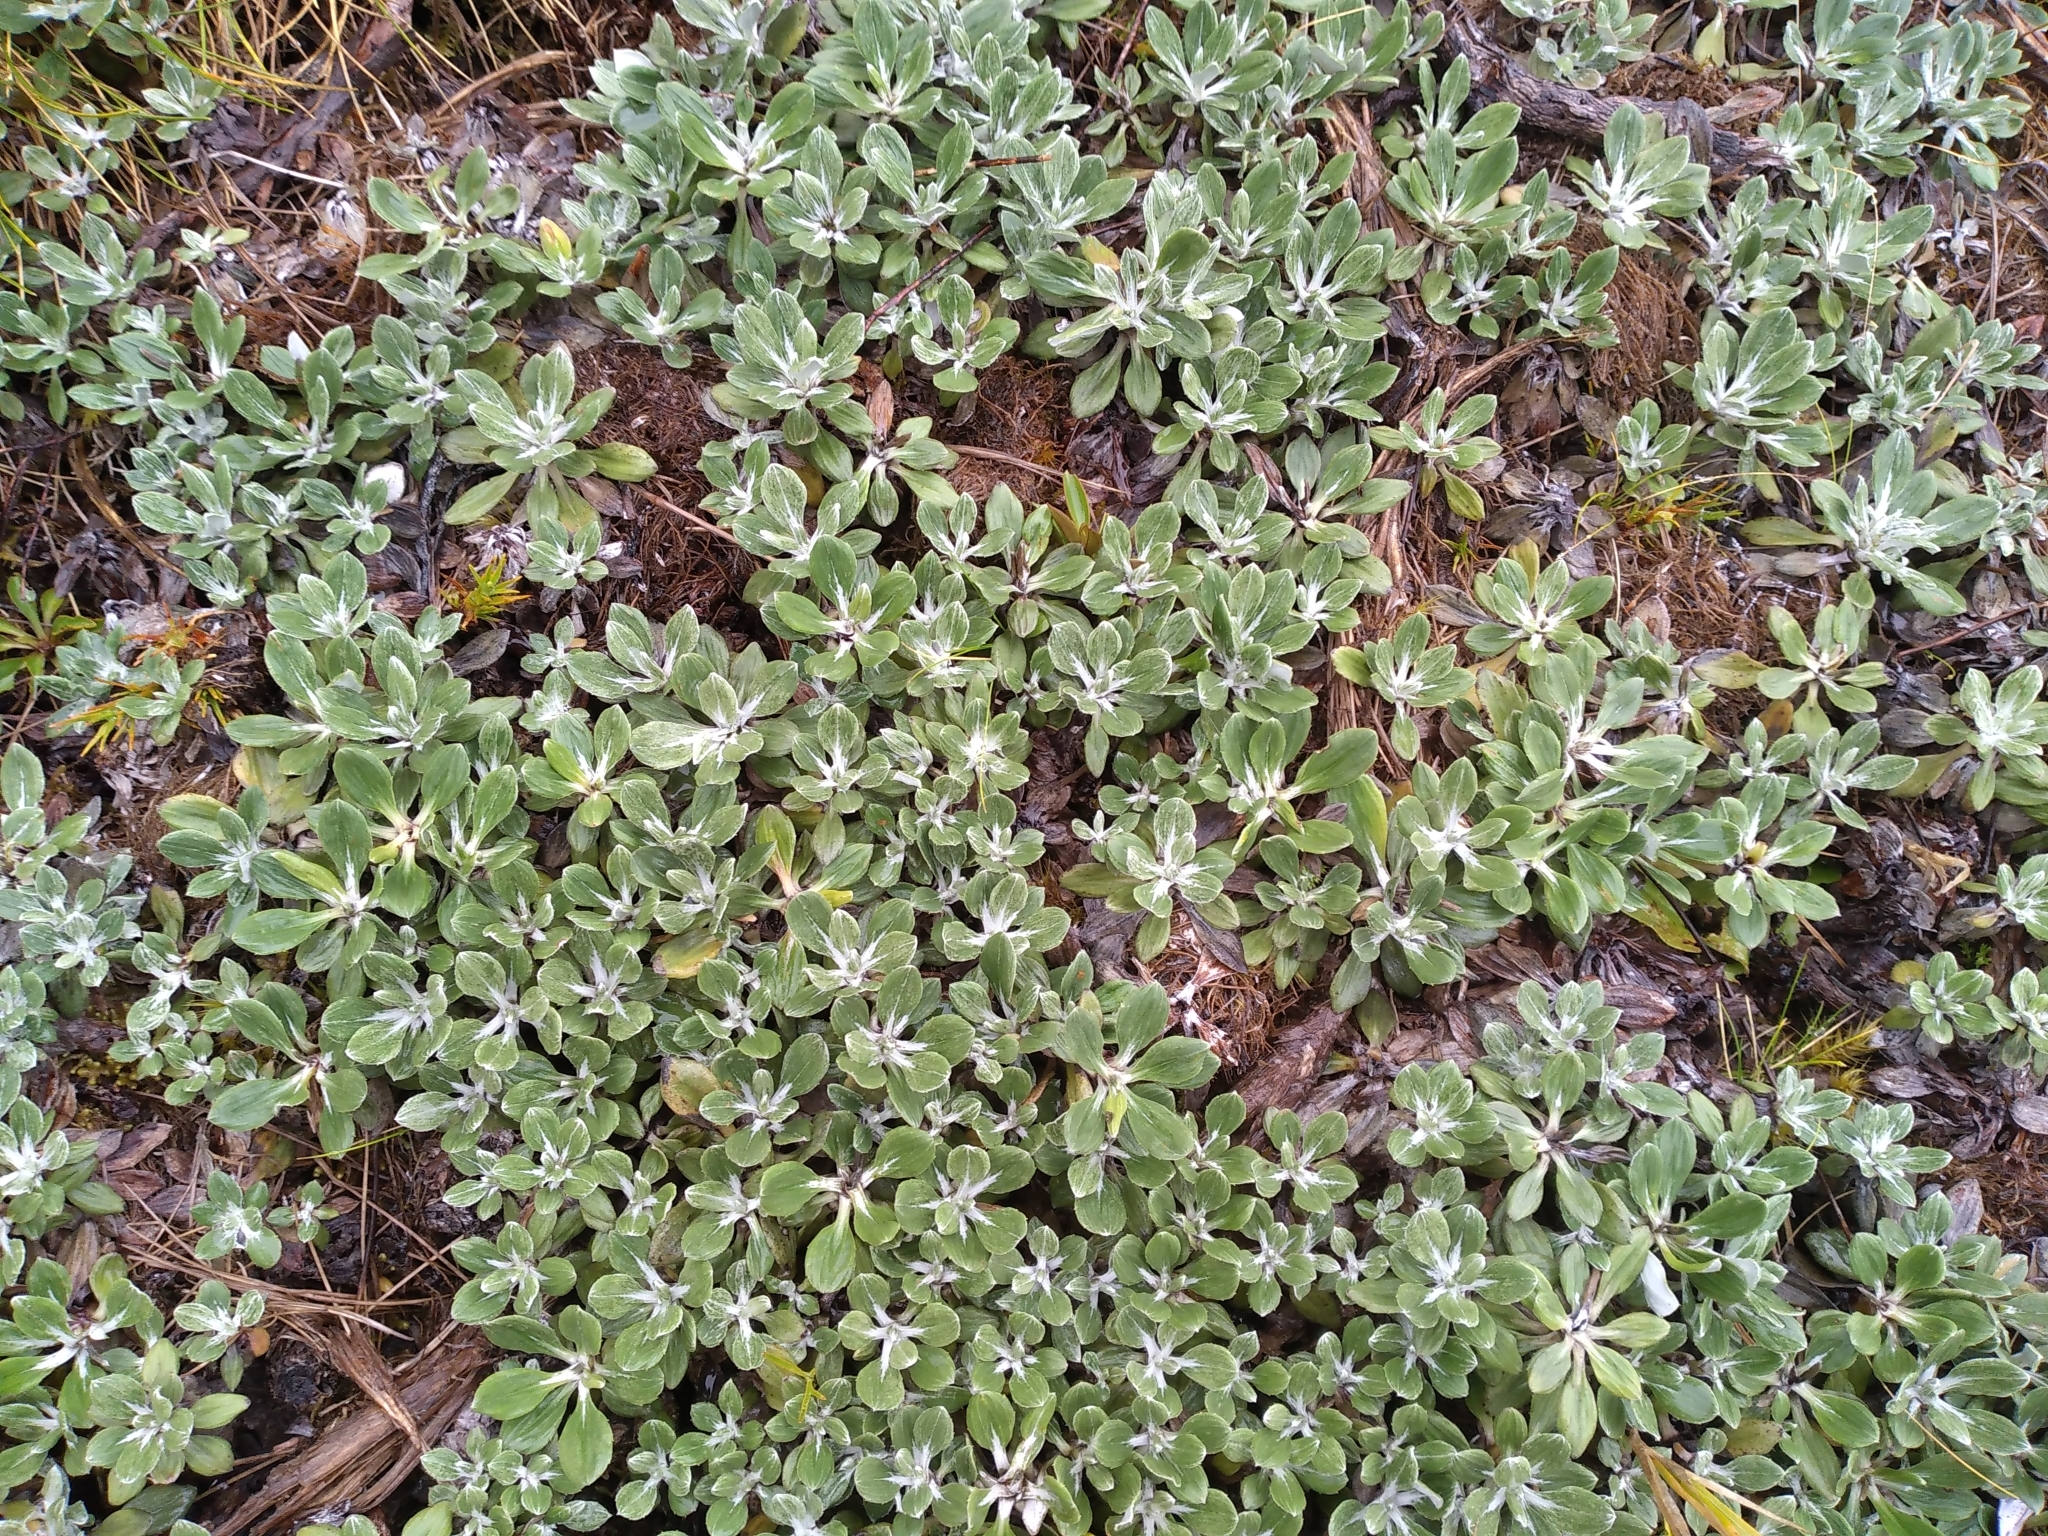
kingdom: Plantae
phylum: Tracheophyta
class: Magnoliopsida
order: Asterales
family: Asteraceae
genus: Celmisia
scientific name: Celmisia discolor
